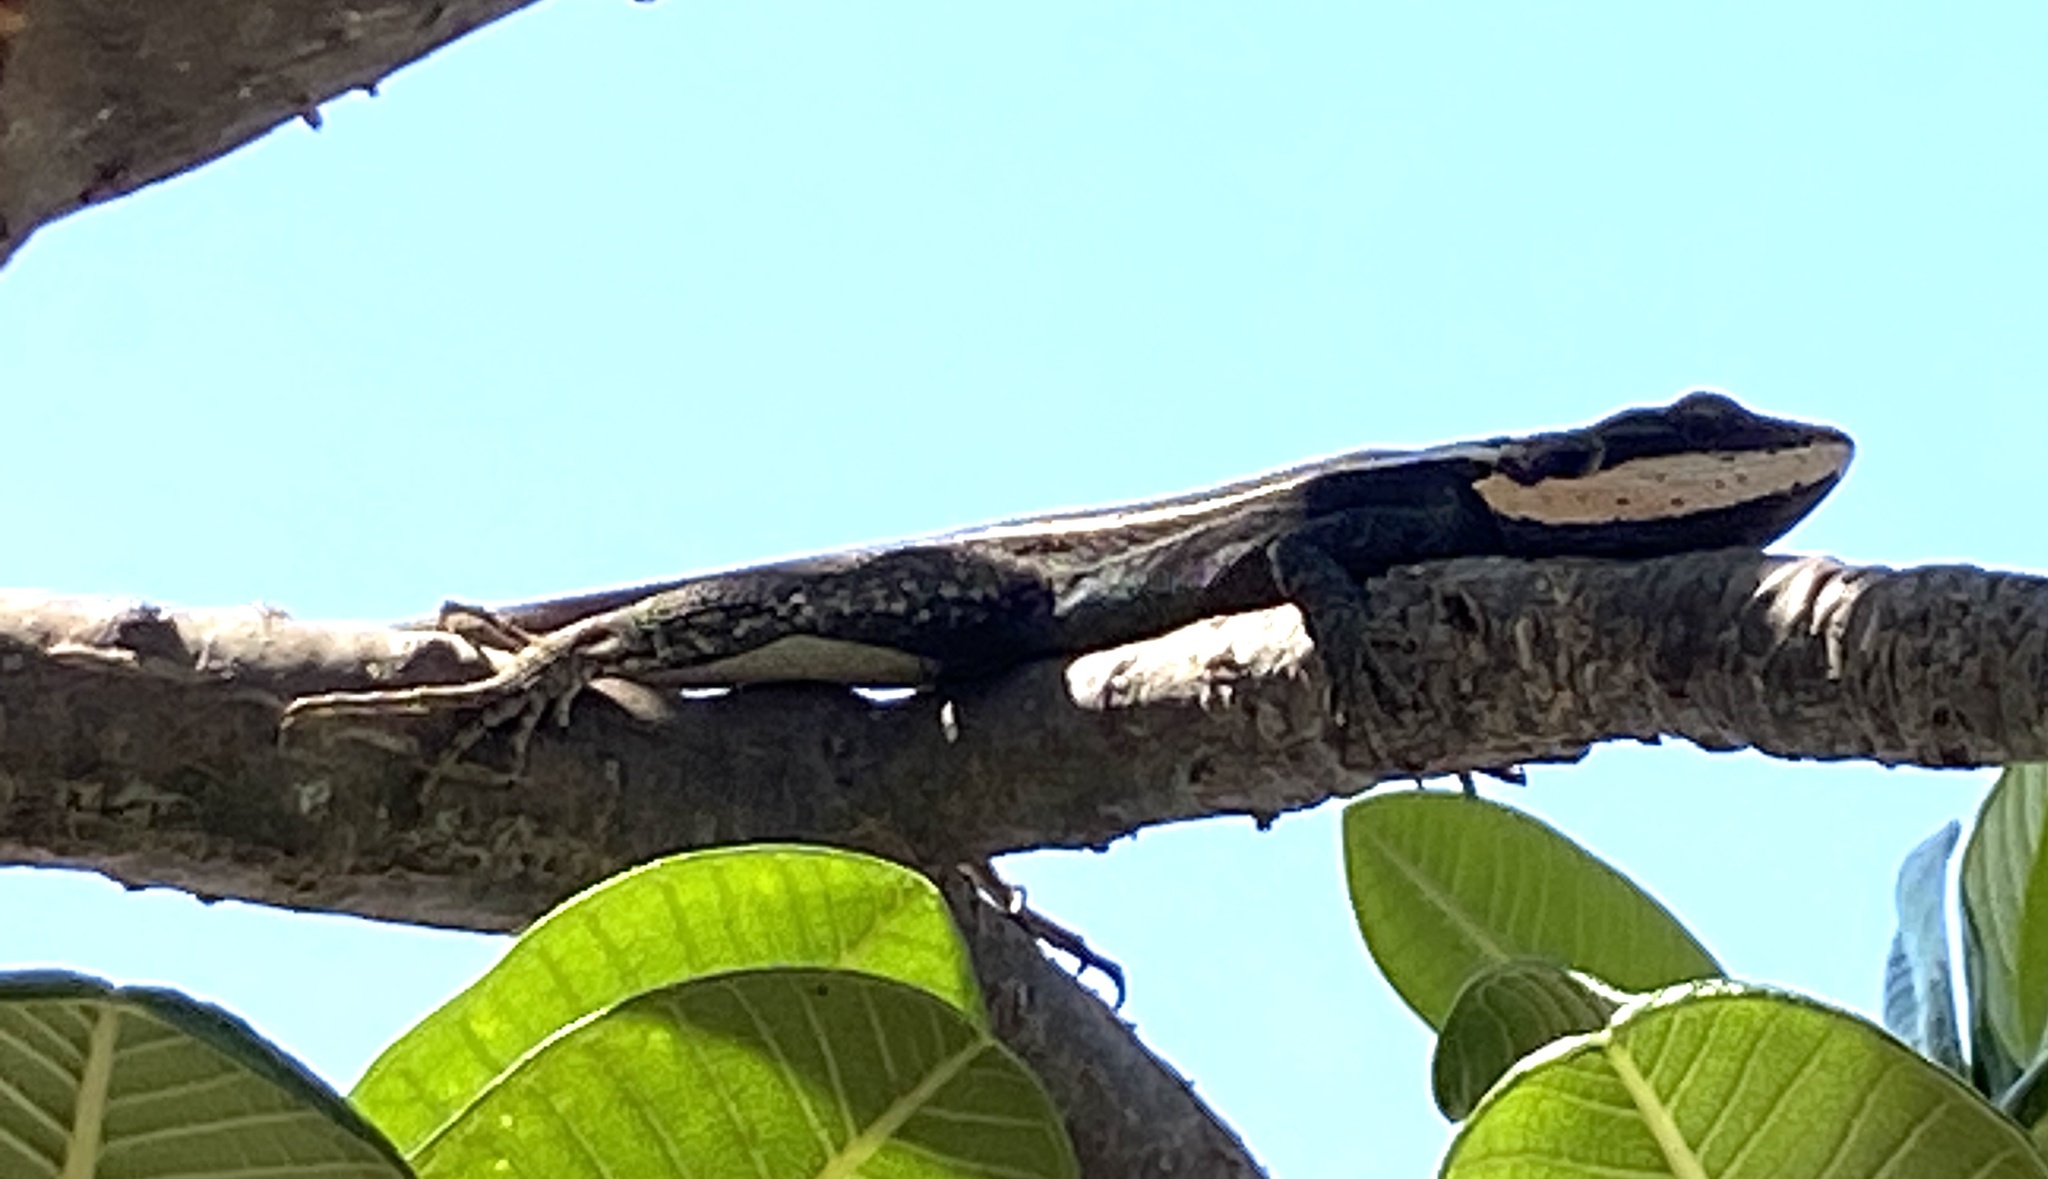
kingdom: Animalia
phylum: Chordata
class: Squamata
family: Agamidae
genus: Lophognathus
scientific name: Lophognathus horneri
